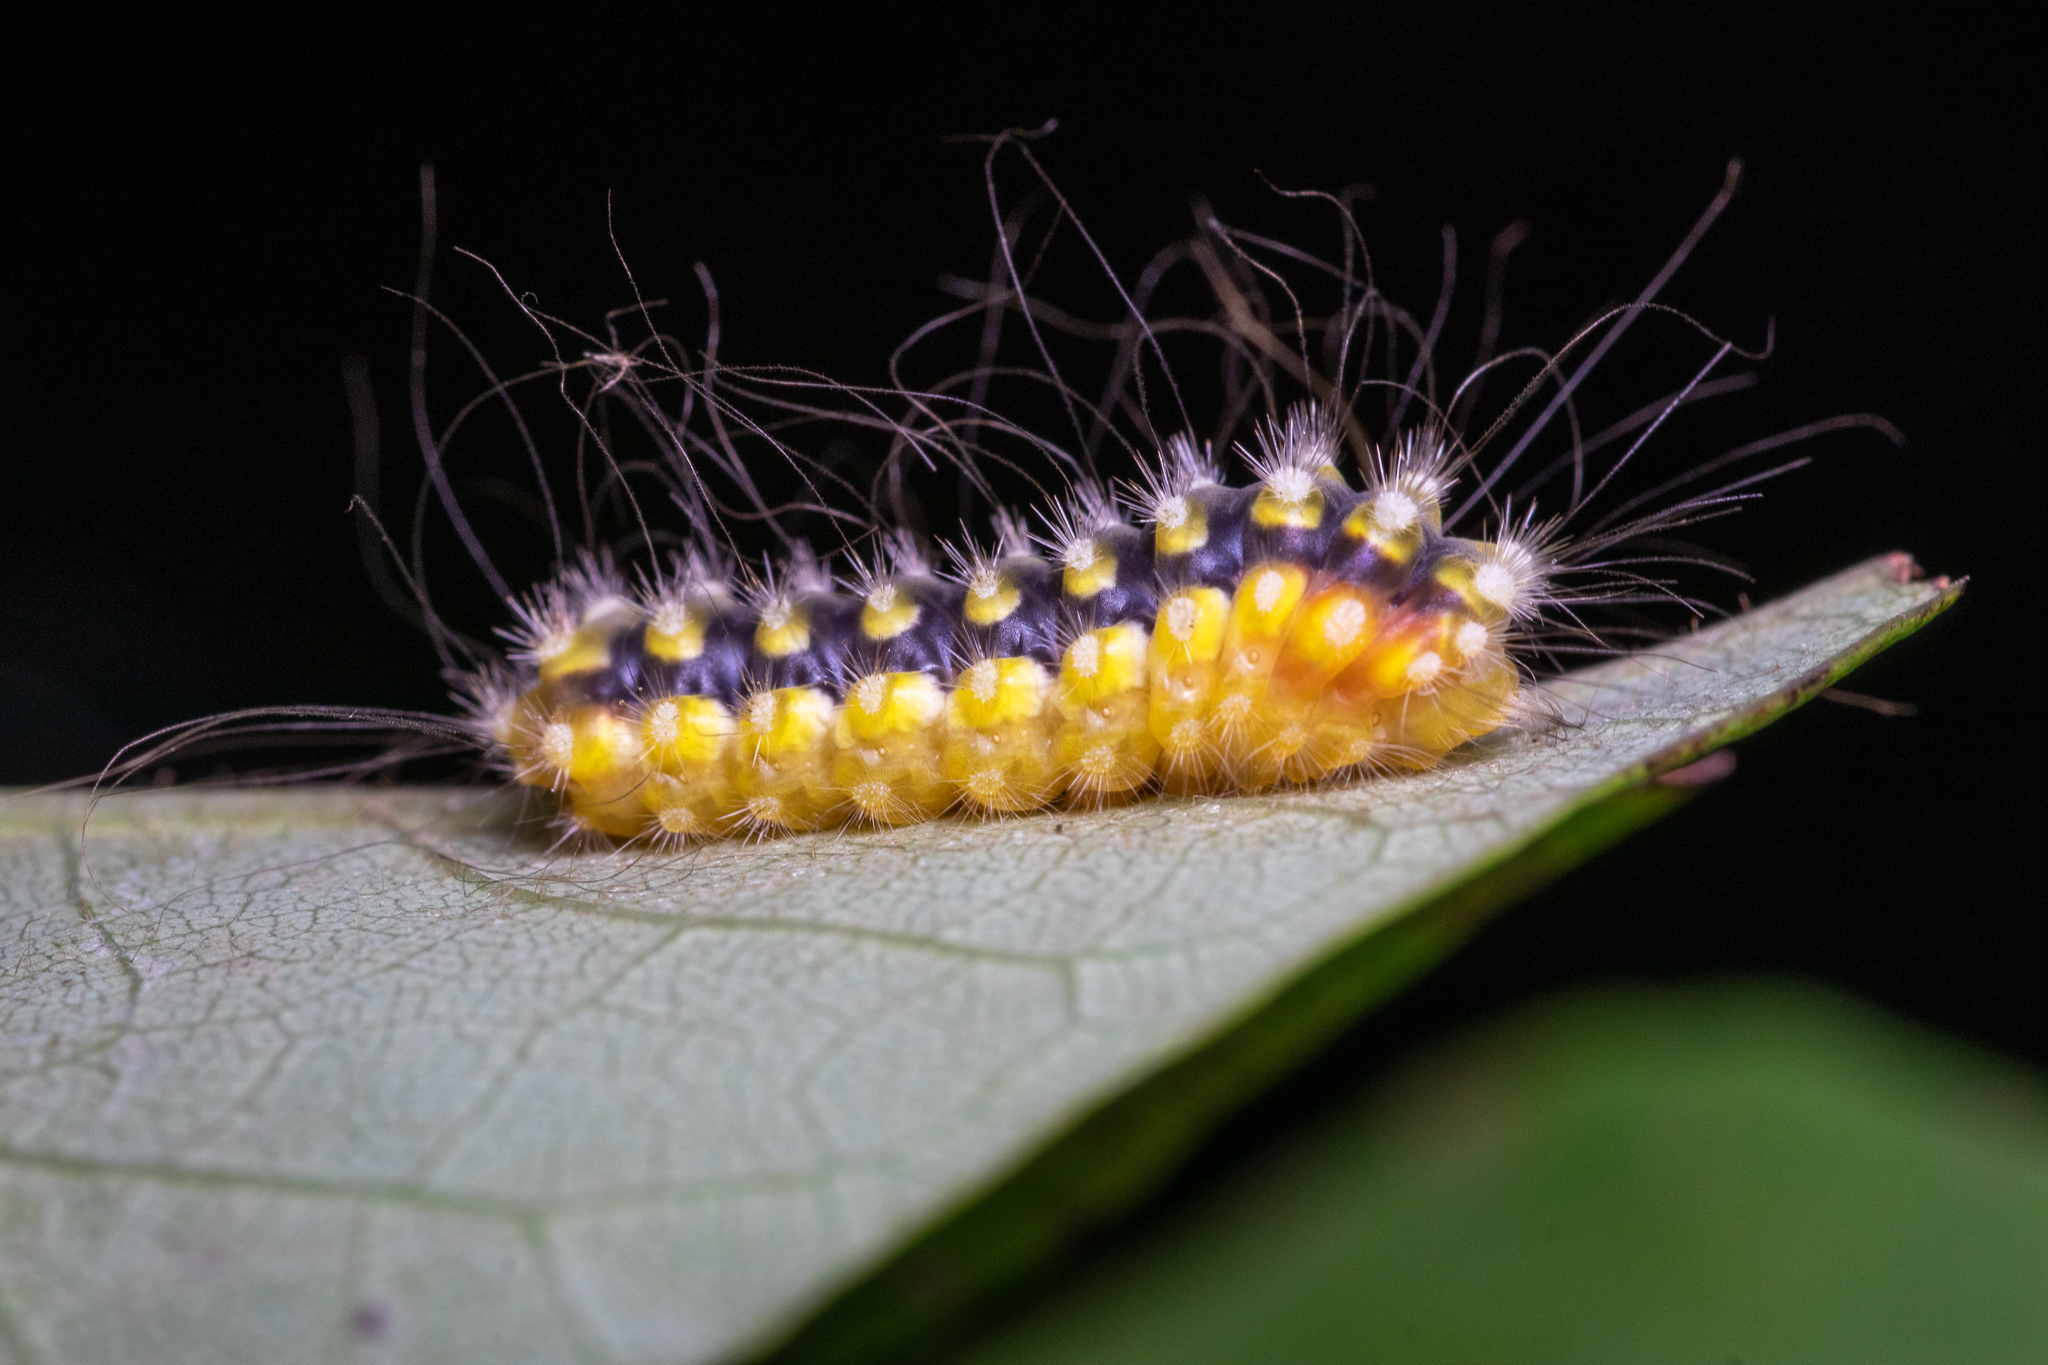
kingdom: Animalia
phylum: Arthropoda
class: Insecta
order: Lepidoptera
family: Megalopygidae
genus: Norape
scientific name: Norape cretata
